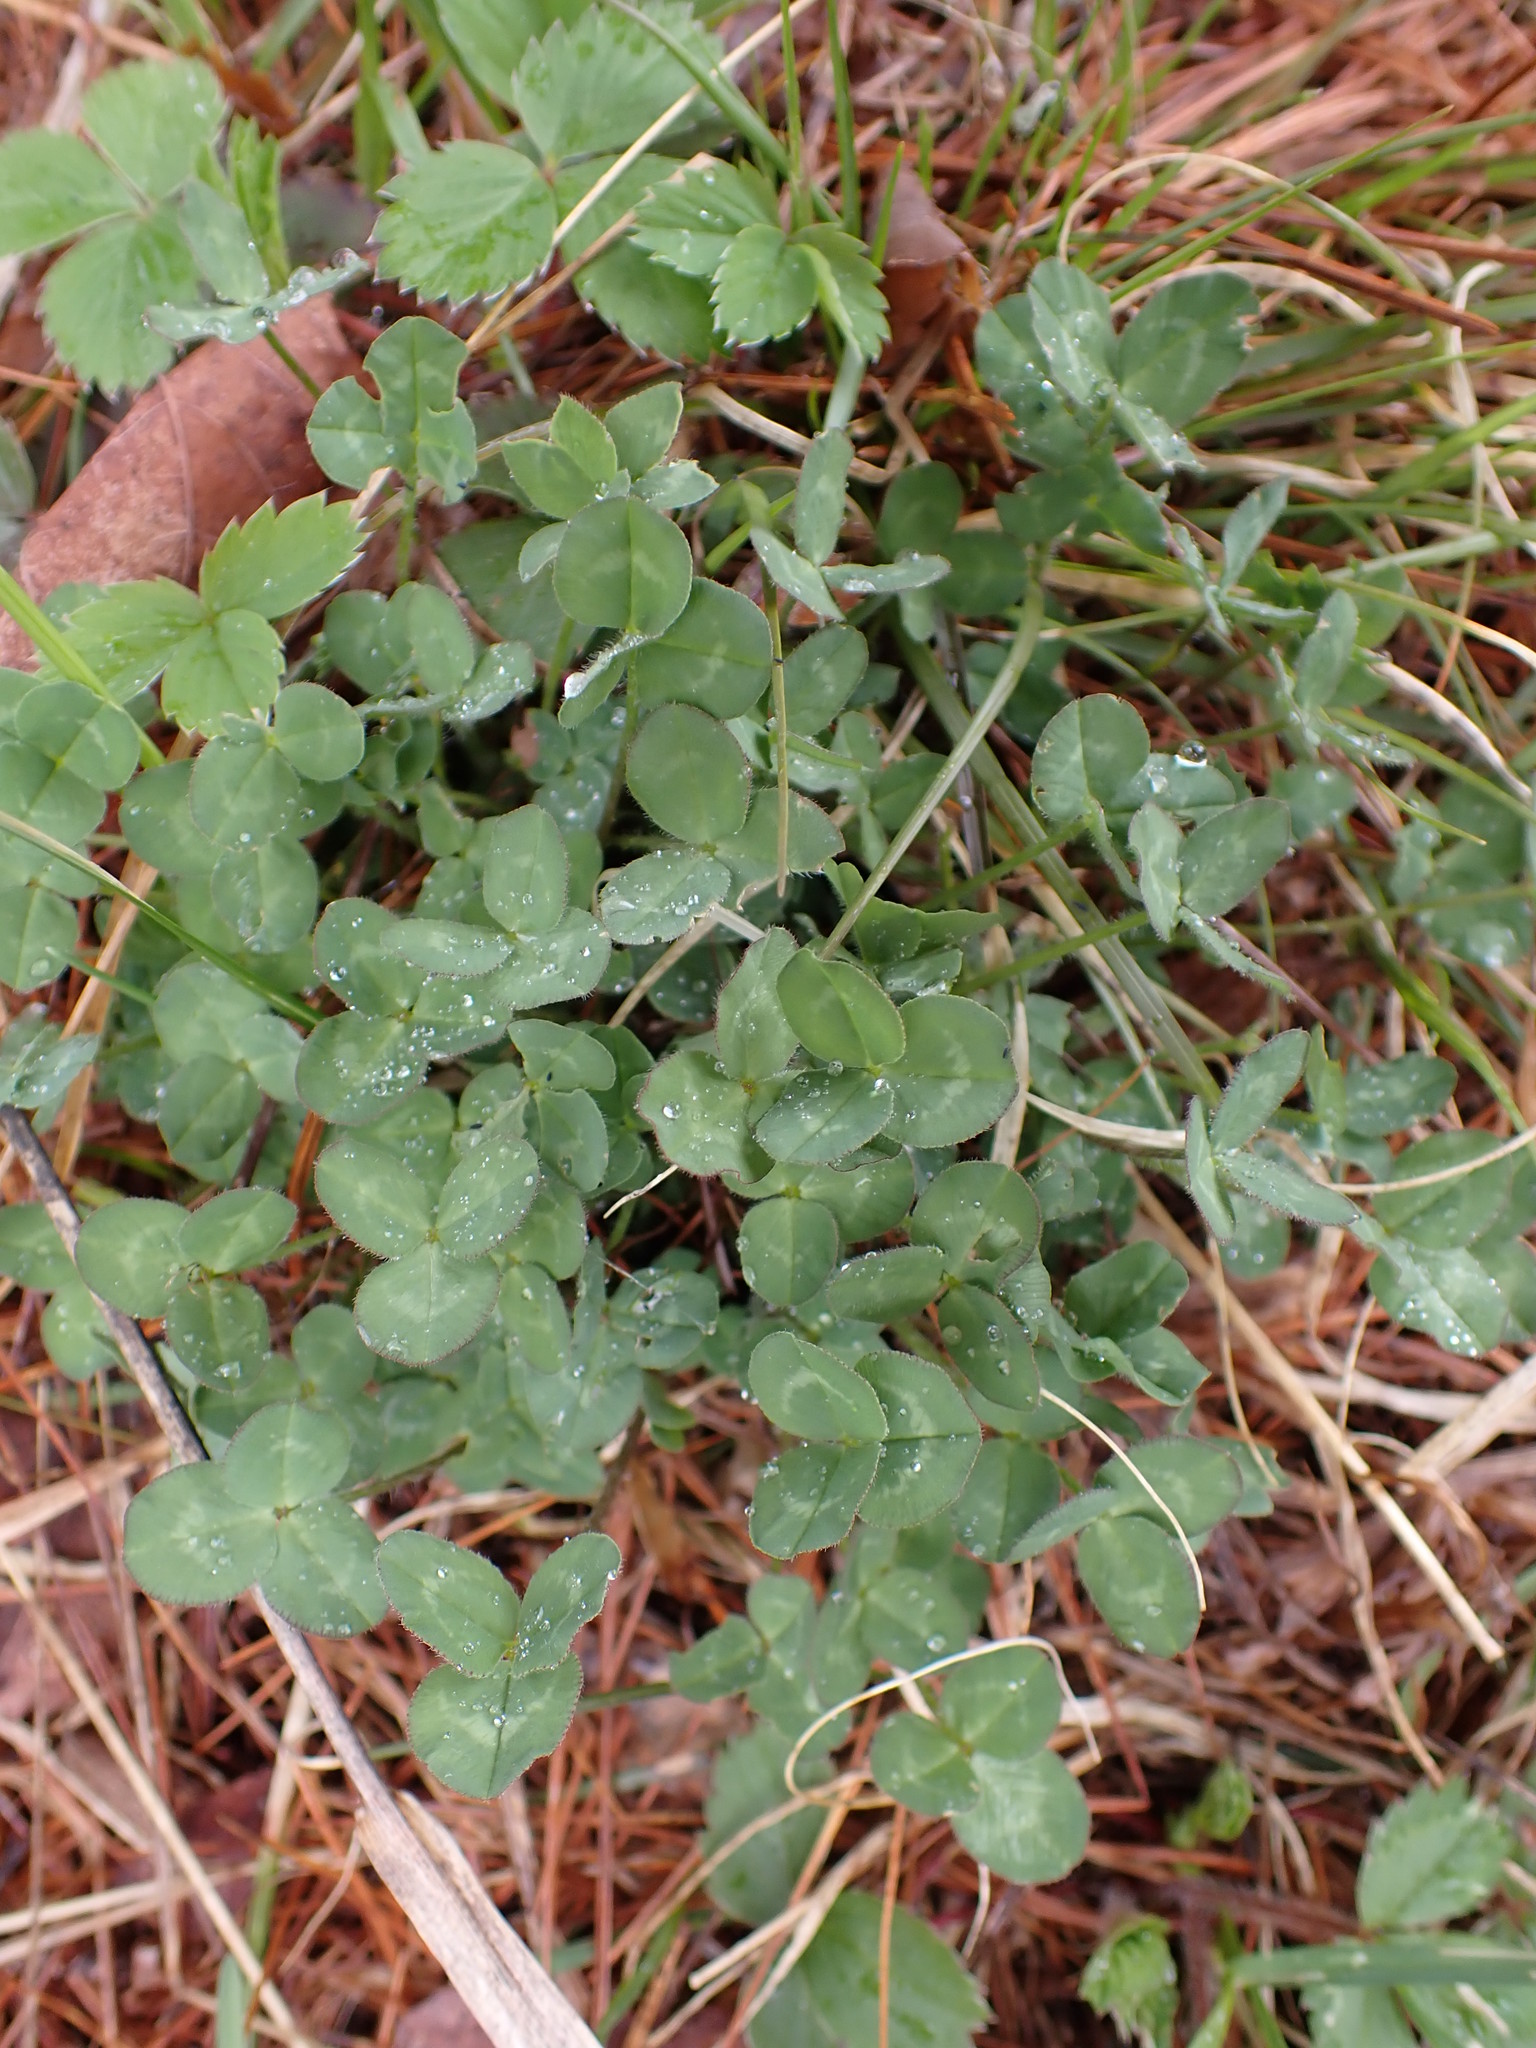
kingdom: Plantae
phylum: Tracheophyta
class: Magnoliopsida
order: Fabales
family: Fabaceae
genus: Trifolium
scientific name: Trifolium pratense
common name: Red clover
